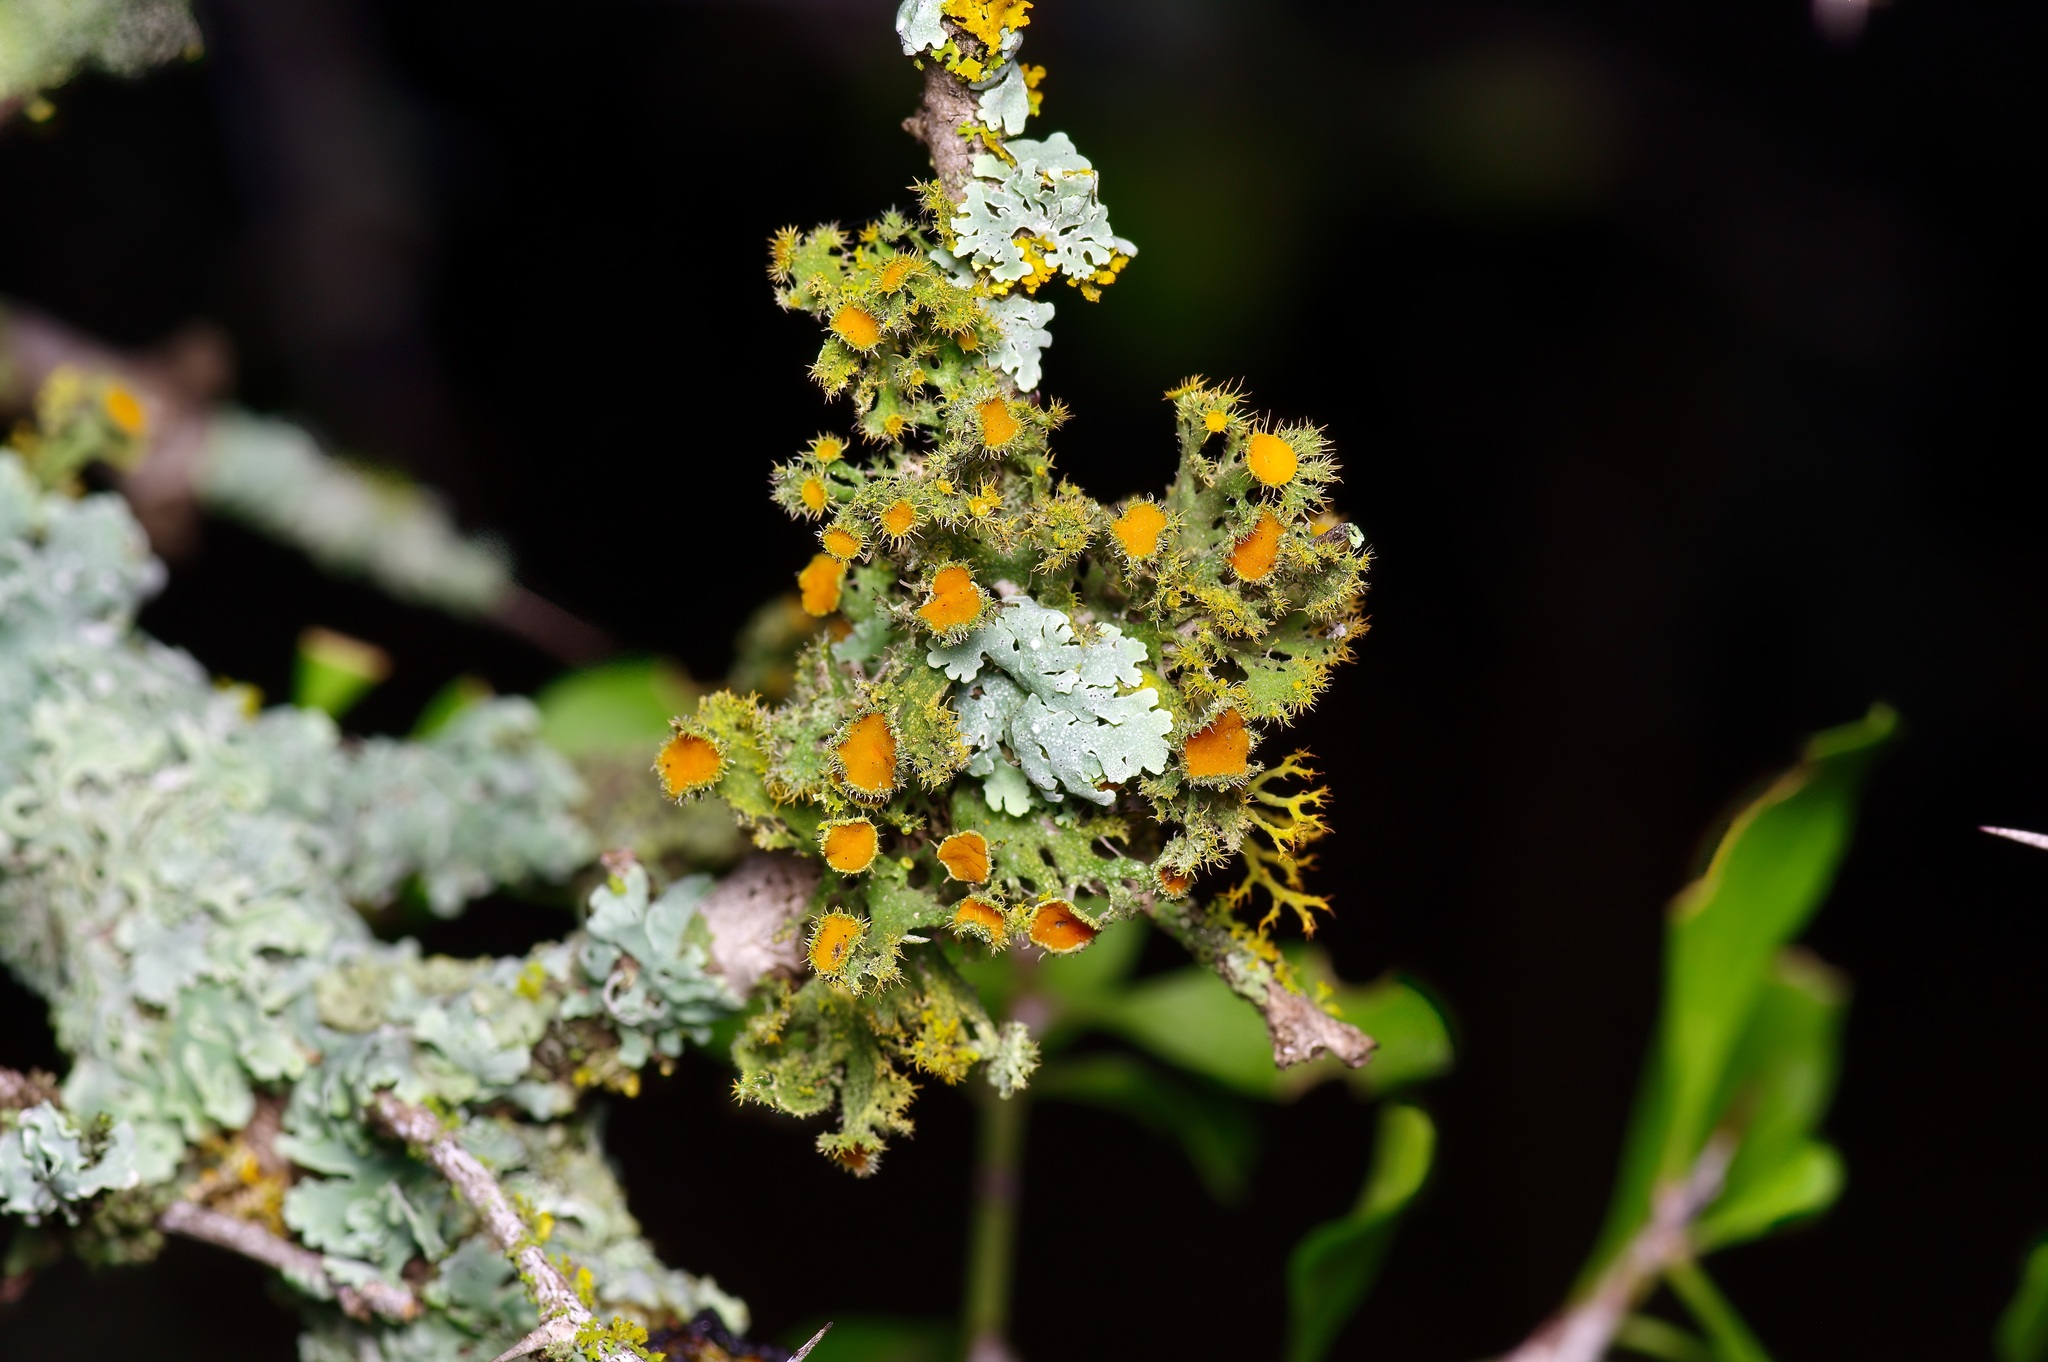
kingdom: Fungi
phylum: Ascomycota
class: Lecanoromycetes
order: Teloschistales
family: Teloschistaceae
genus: Niorma
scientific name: Niorma chrysophthalma
